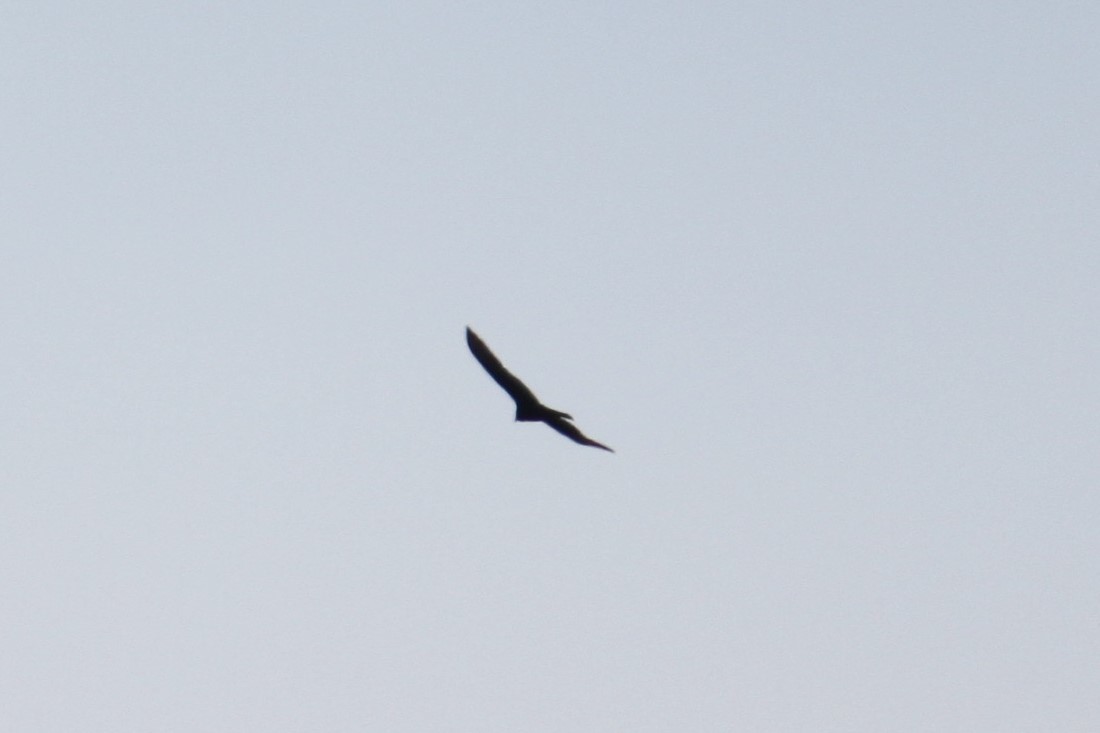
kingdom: Animalia
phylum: Chordata
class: Aves
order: Accipitriformes
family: Cathartidae
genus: Cathartes
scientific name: Cathartes aura
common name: Turkey vulture
